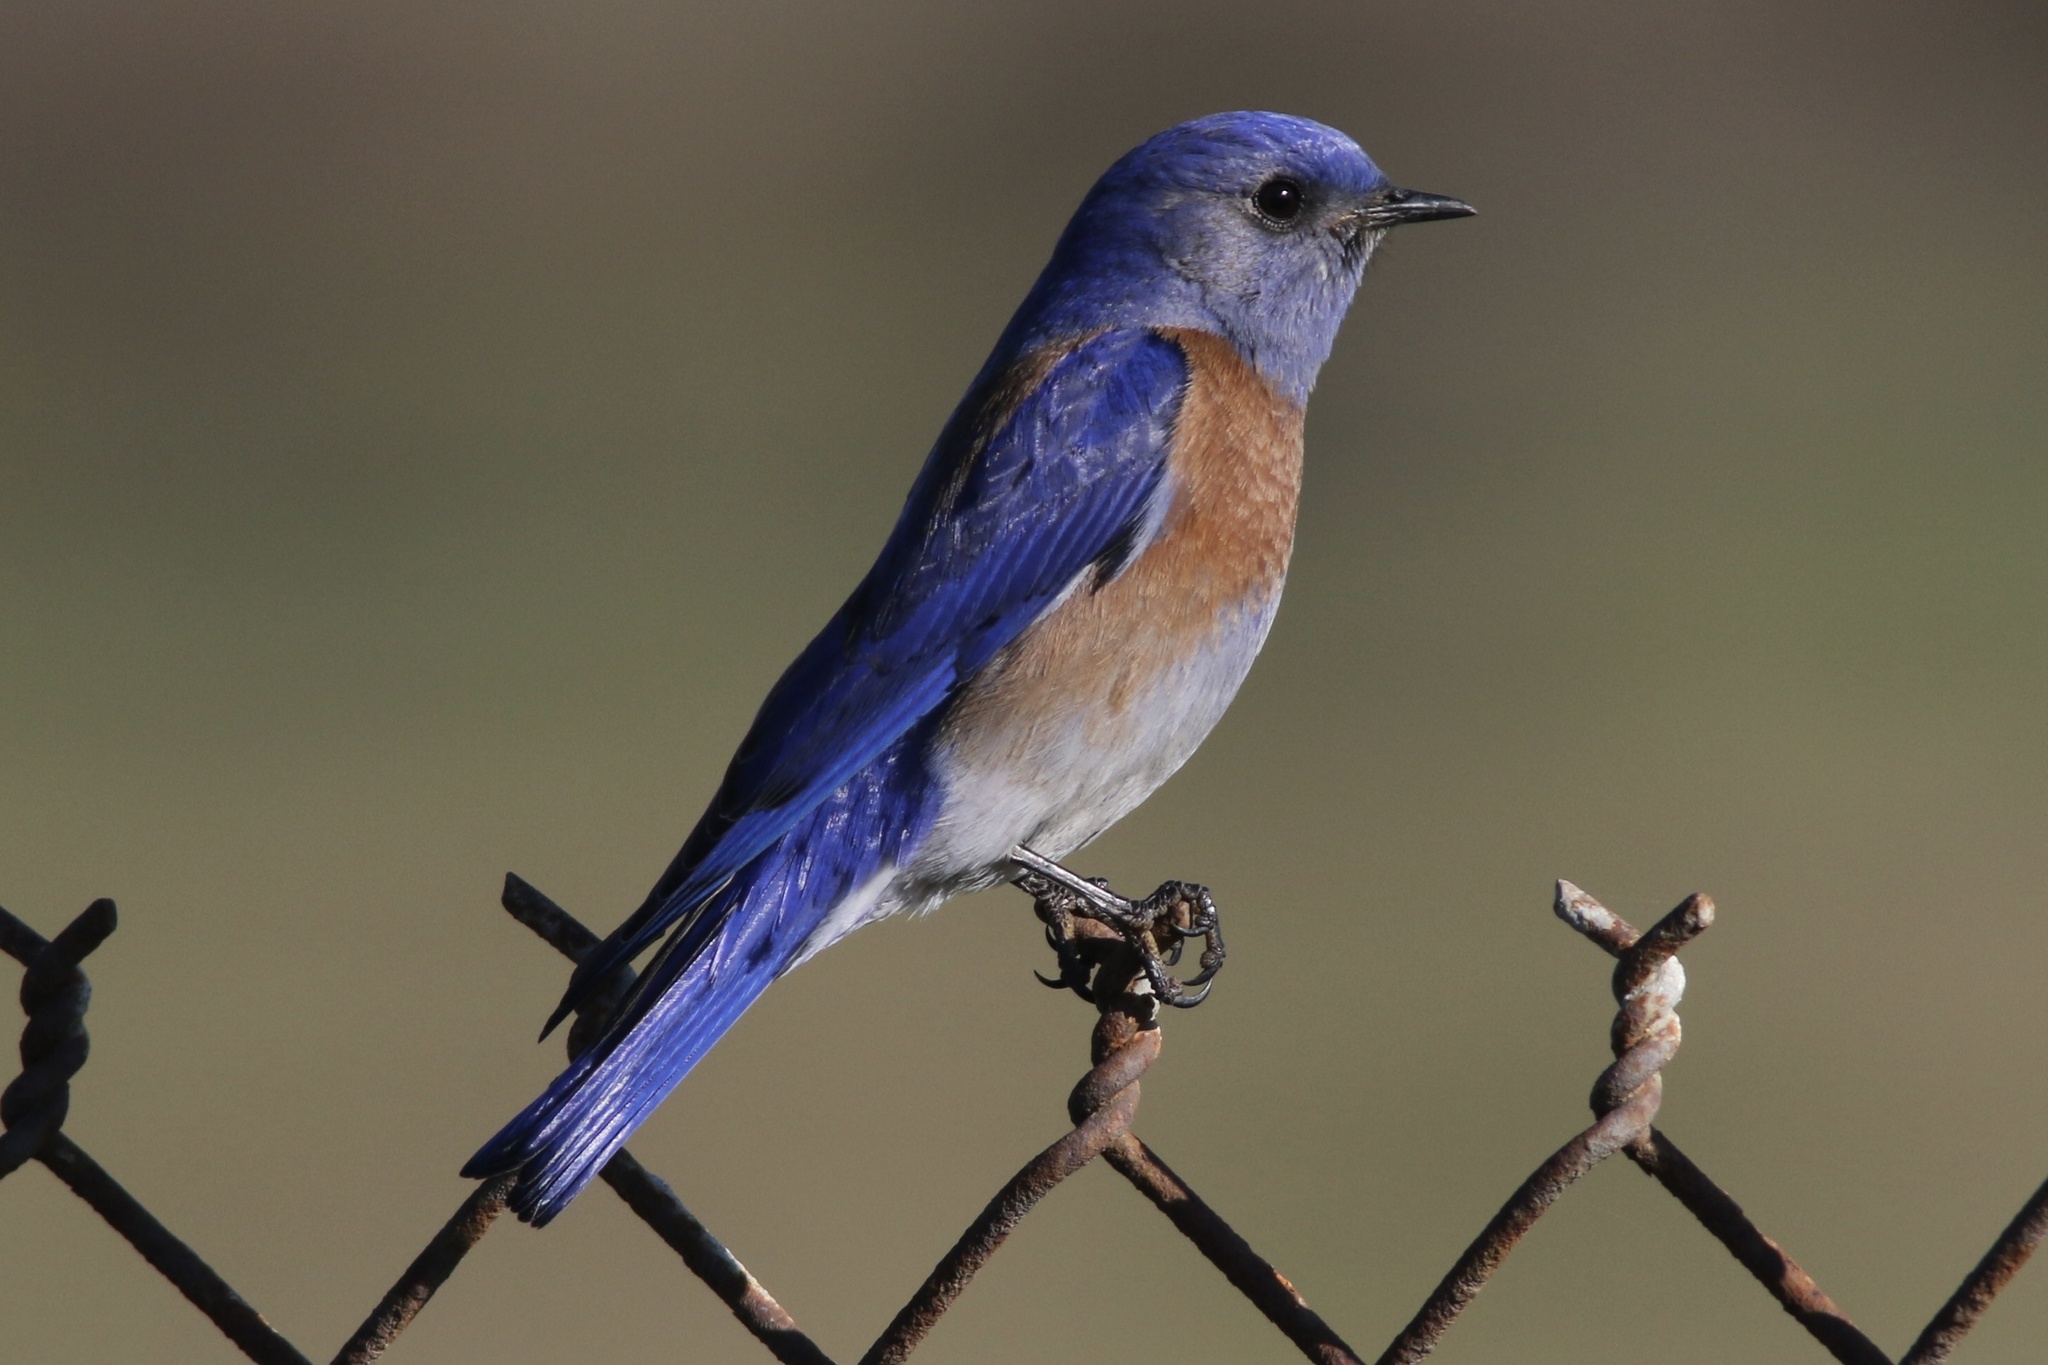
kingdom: Animalia
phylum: Chordata
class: Aves
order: Passeriformes
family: Turdidae
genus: Sialia
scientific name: Sialia mexicana
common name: Western bluebird
